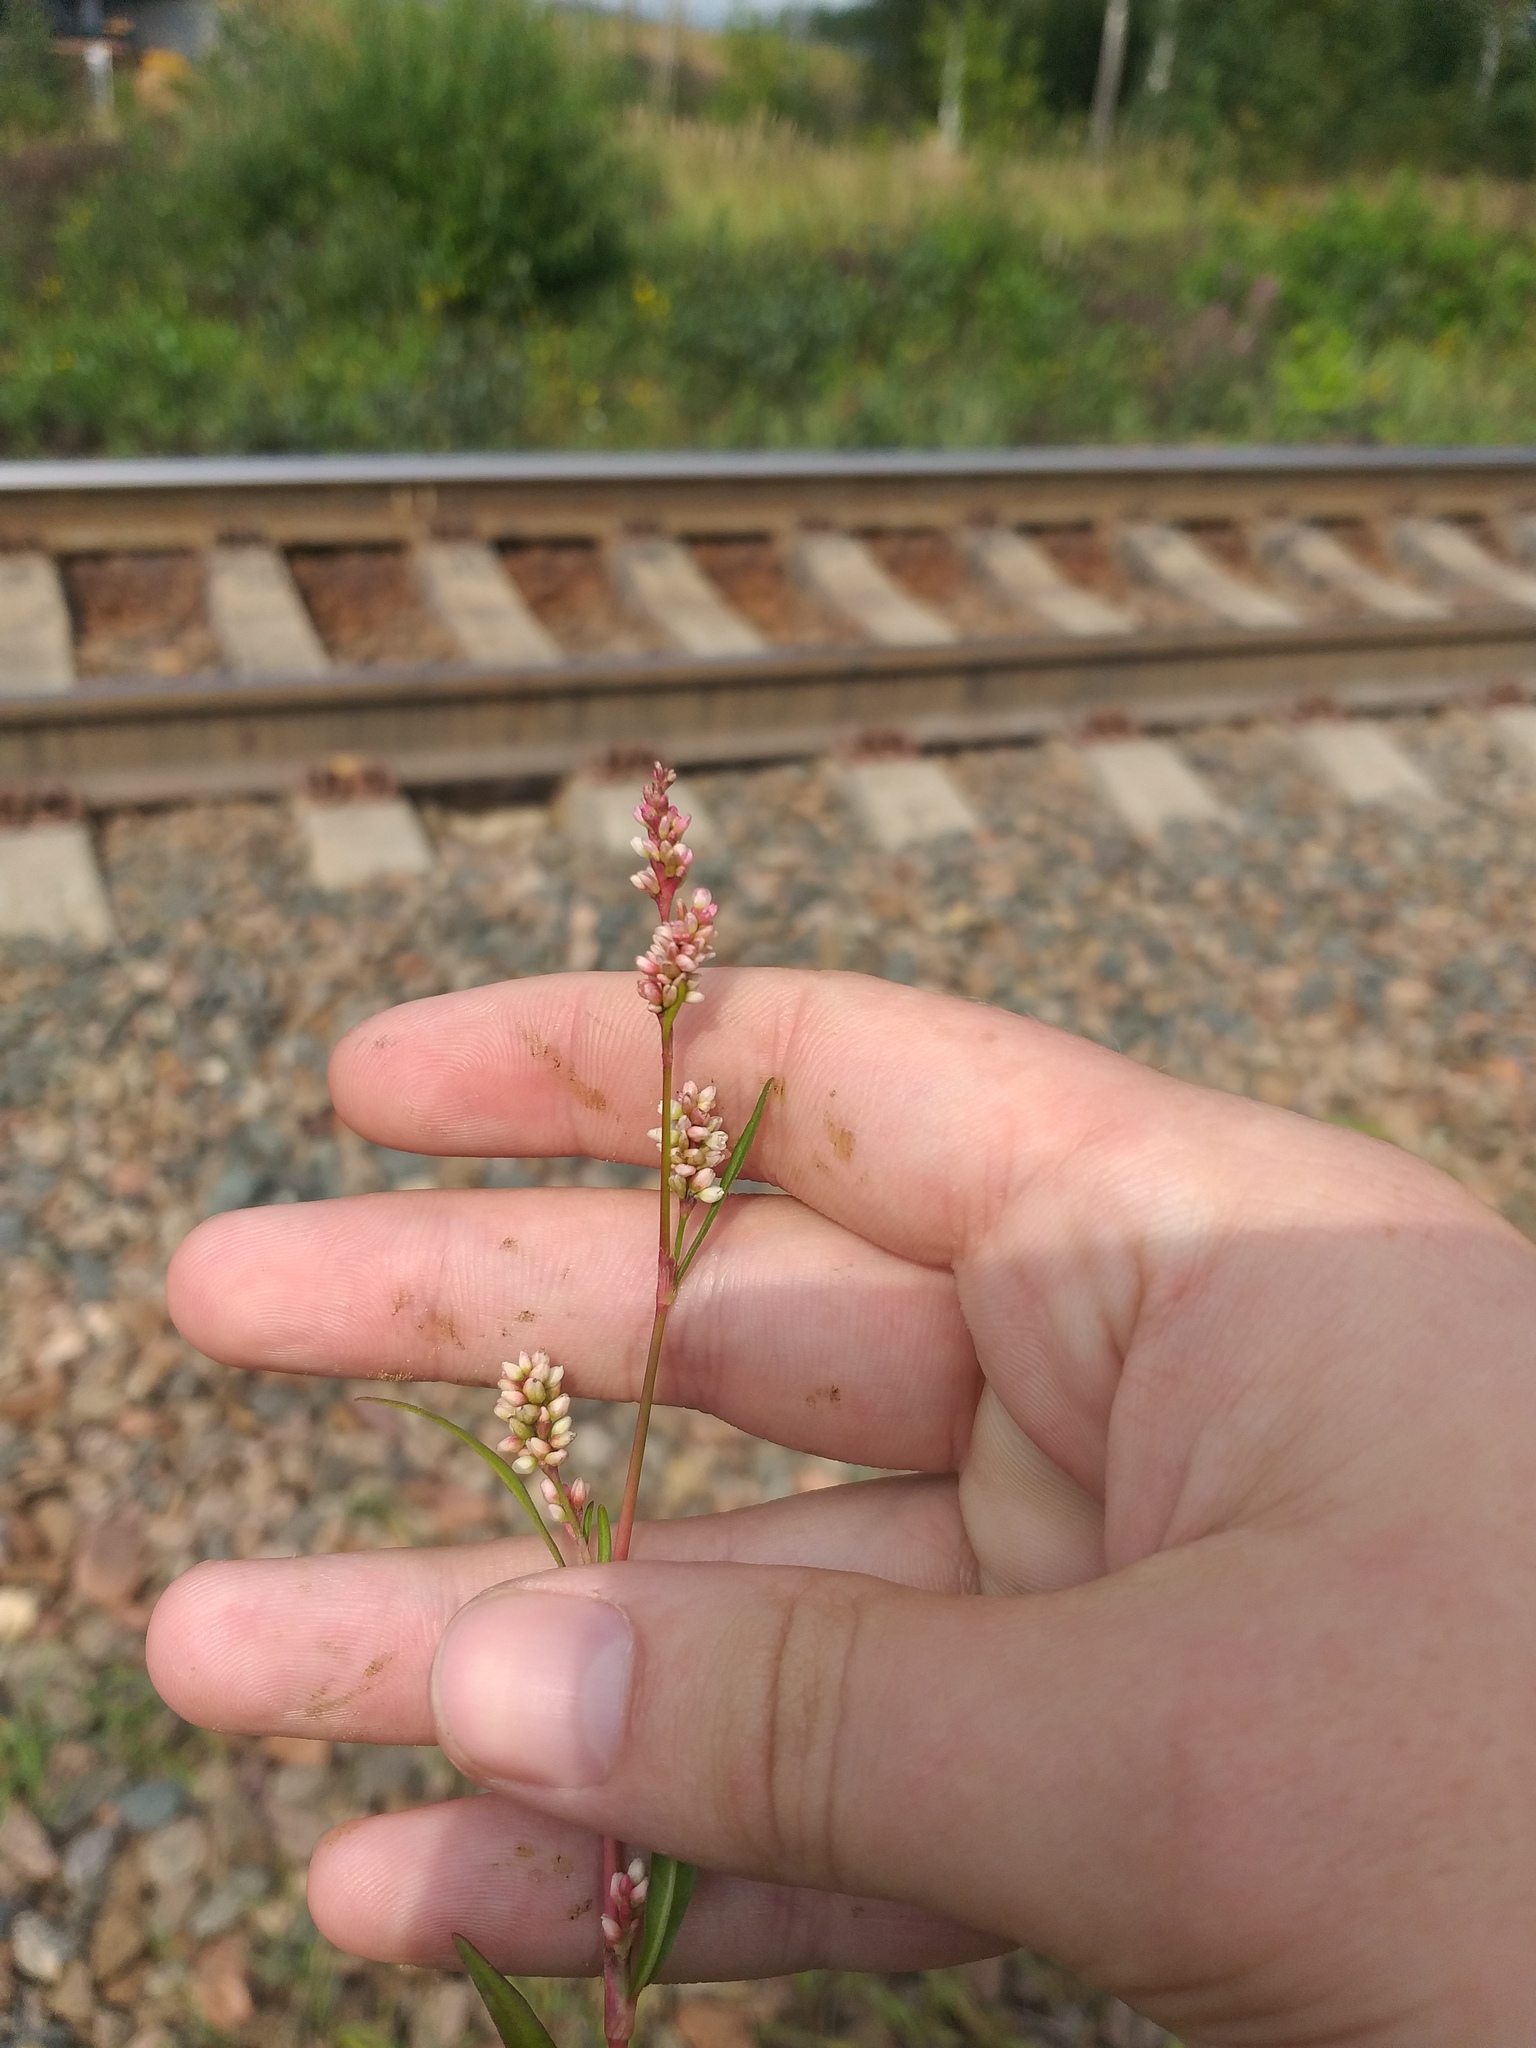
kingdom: Plantae
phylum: Tracheophyta
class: Magnoliopsida
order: Caryophyllales
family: Polygonaceae
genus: Persicaria
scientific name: Persicaria maculosa
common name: Redshank
